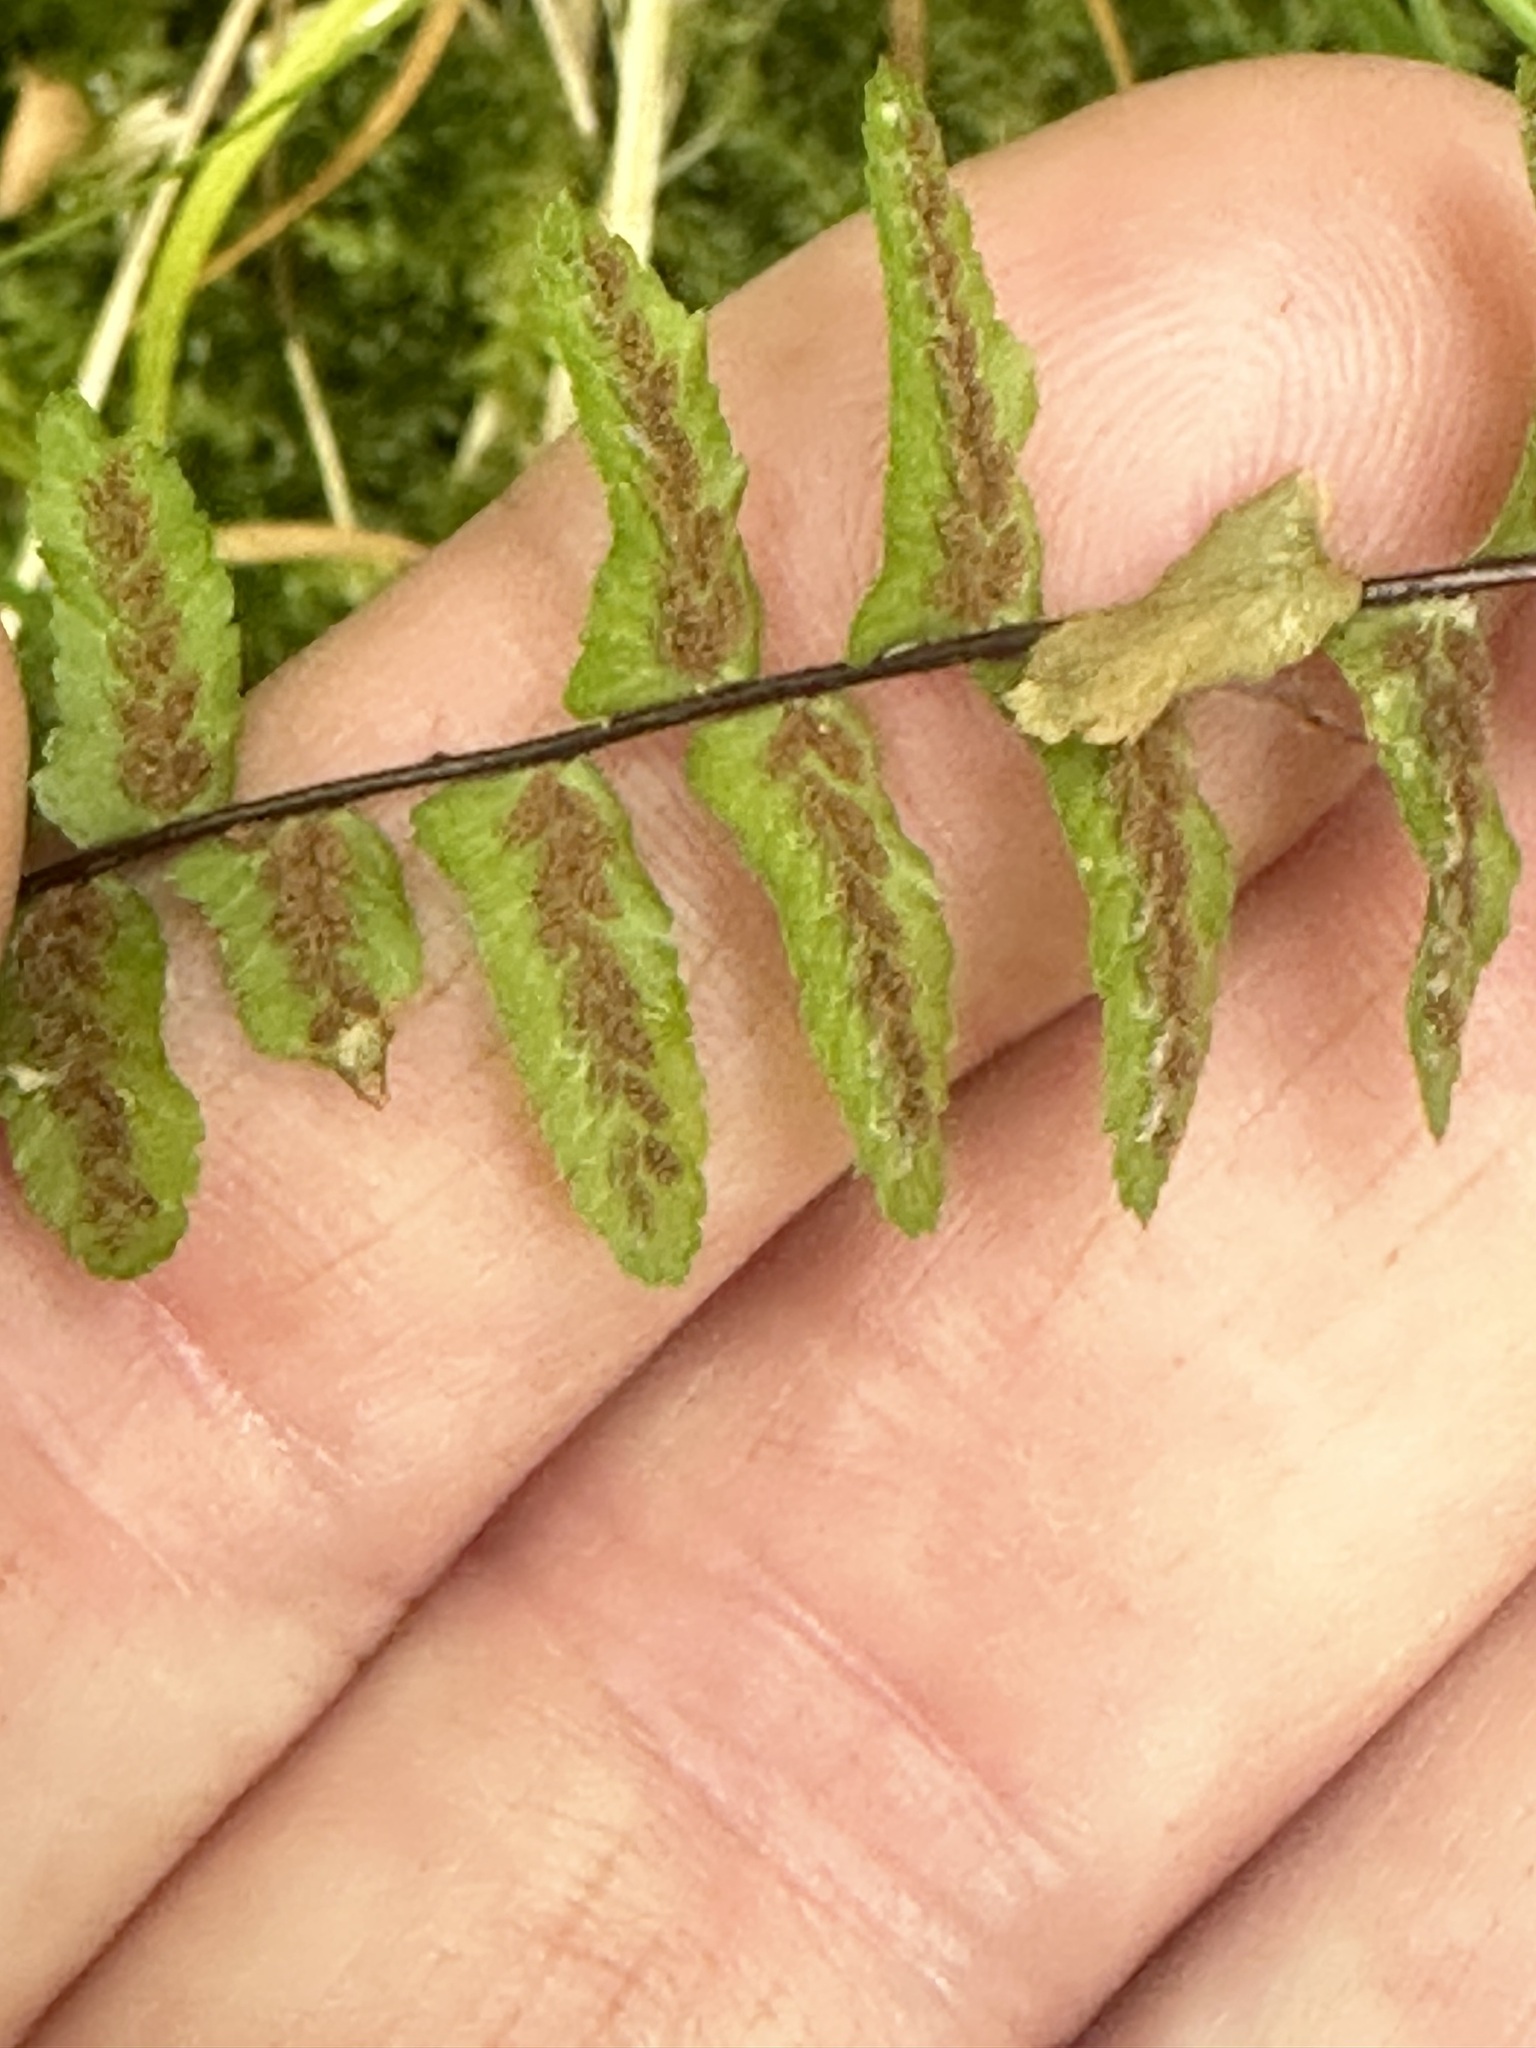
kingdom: Plantae
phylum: Tracheophyta
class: Polypodiopsida
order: Polypodiales
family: Aspleniaceae
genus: Asplenium
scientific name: Asplenium platyneuron
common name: Ebony spleenwort
